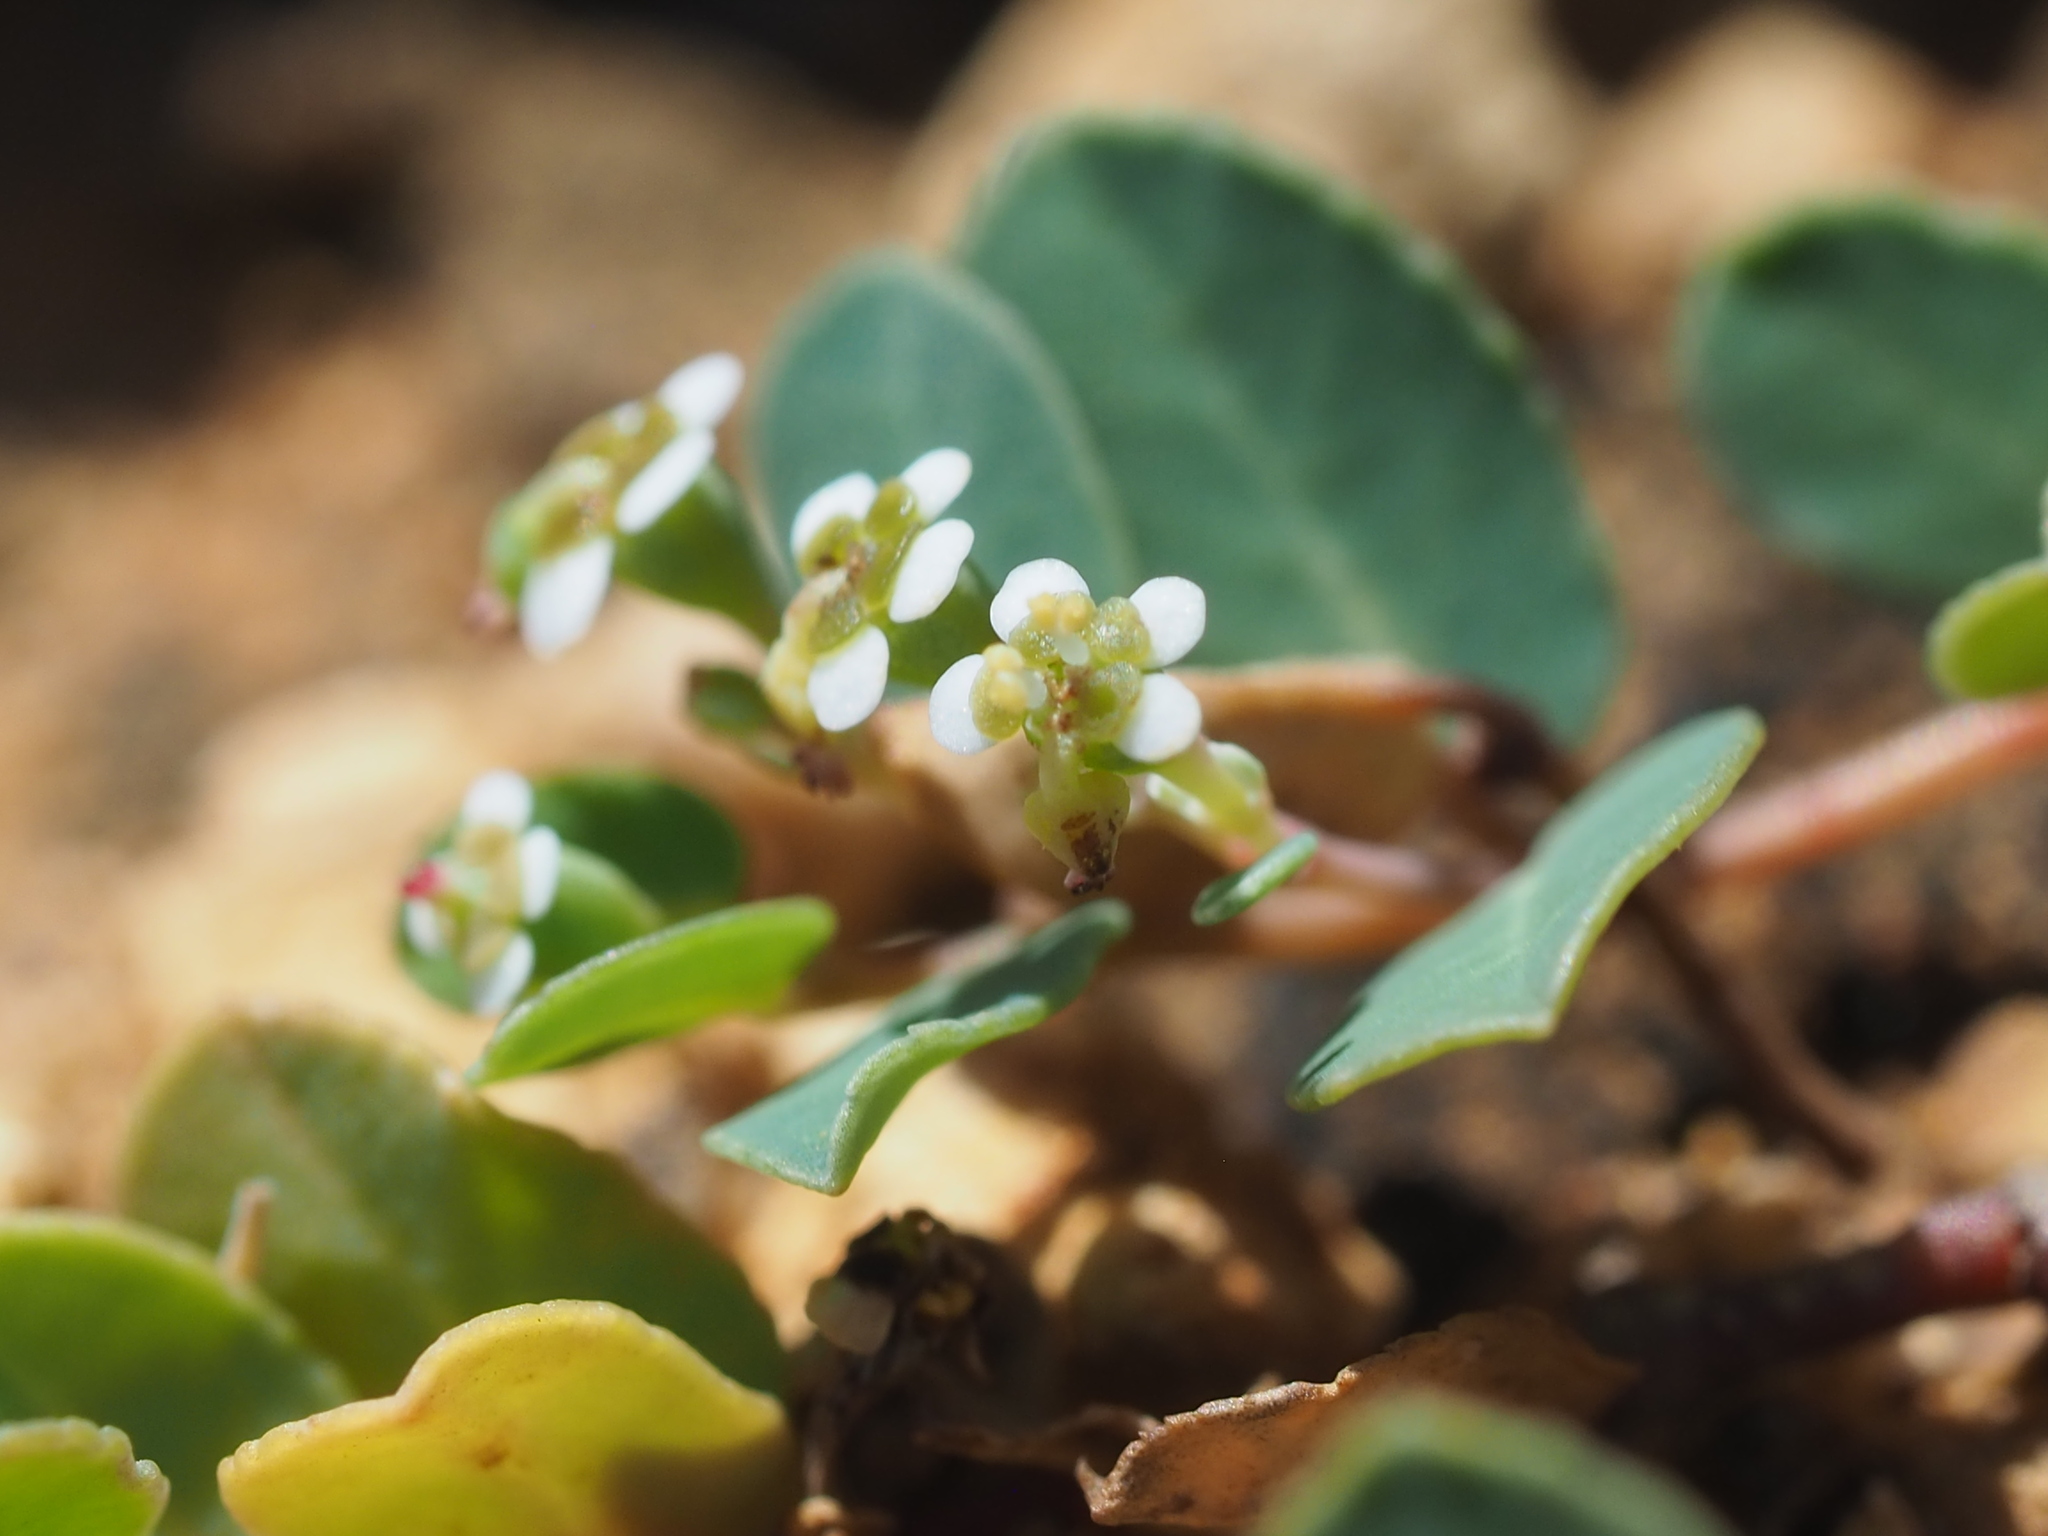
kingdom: Plantae
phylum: Tracheophyta
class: Magnoliopsida
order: Malpighiales
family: Euphorbiaceae
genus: Euphorbia
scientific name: Euphorbia garanbiensis
